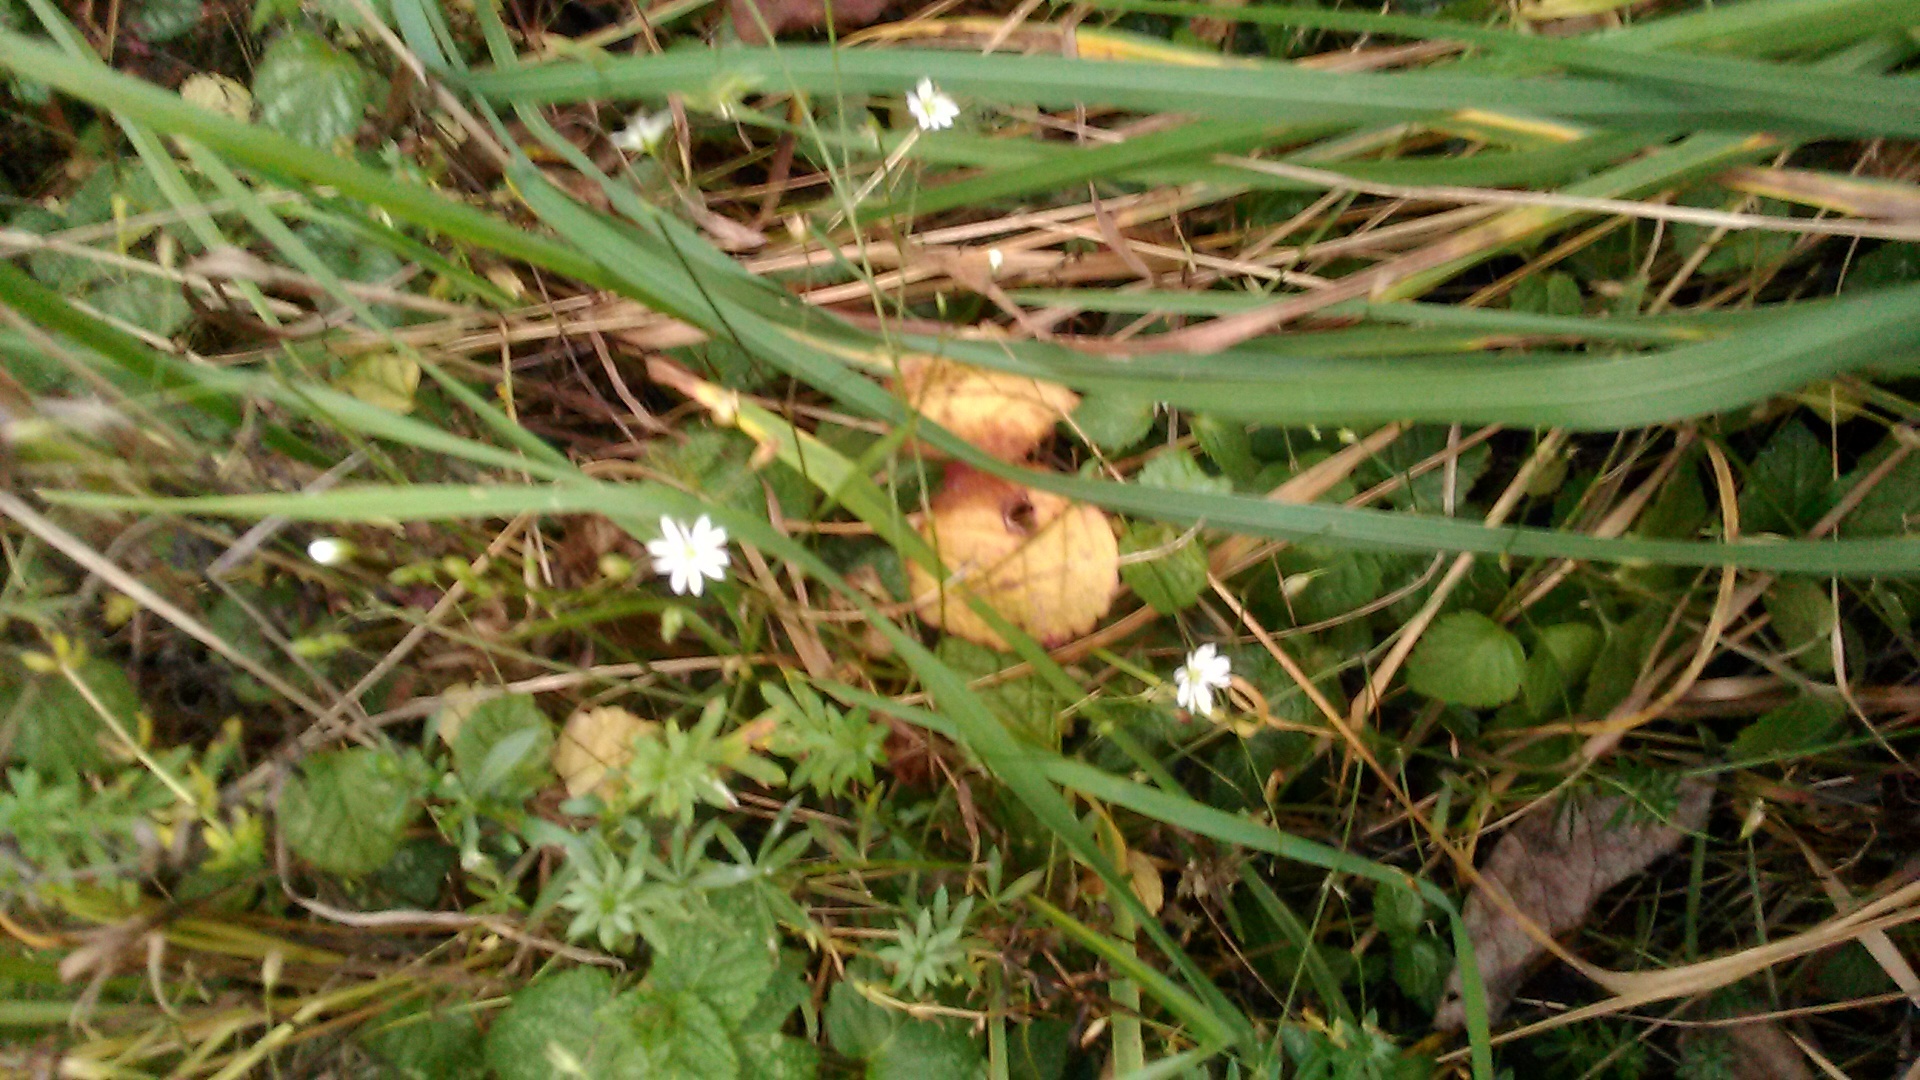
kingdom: Plantae
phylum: Tracheophyta
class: Magnoliopsida
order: Caryophyllales
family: Caryophyllaceae
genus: Stellaria
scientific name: Stellaria graminea
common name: Grass-like starwort
